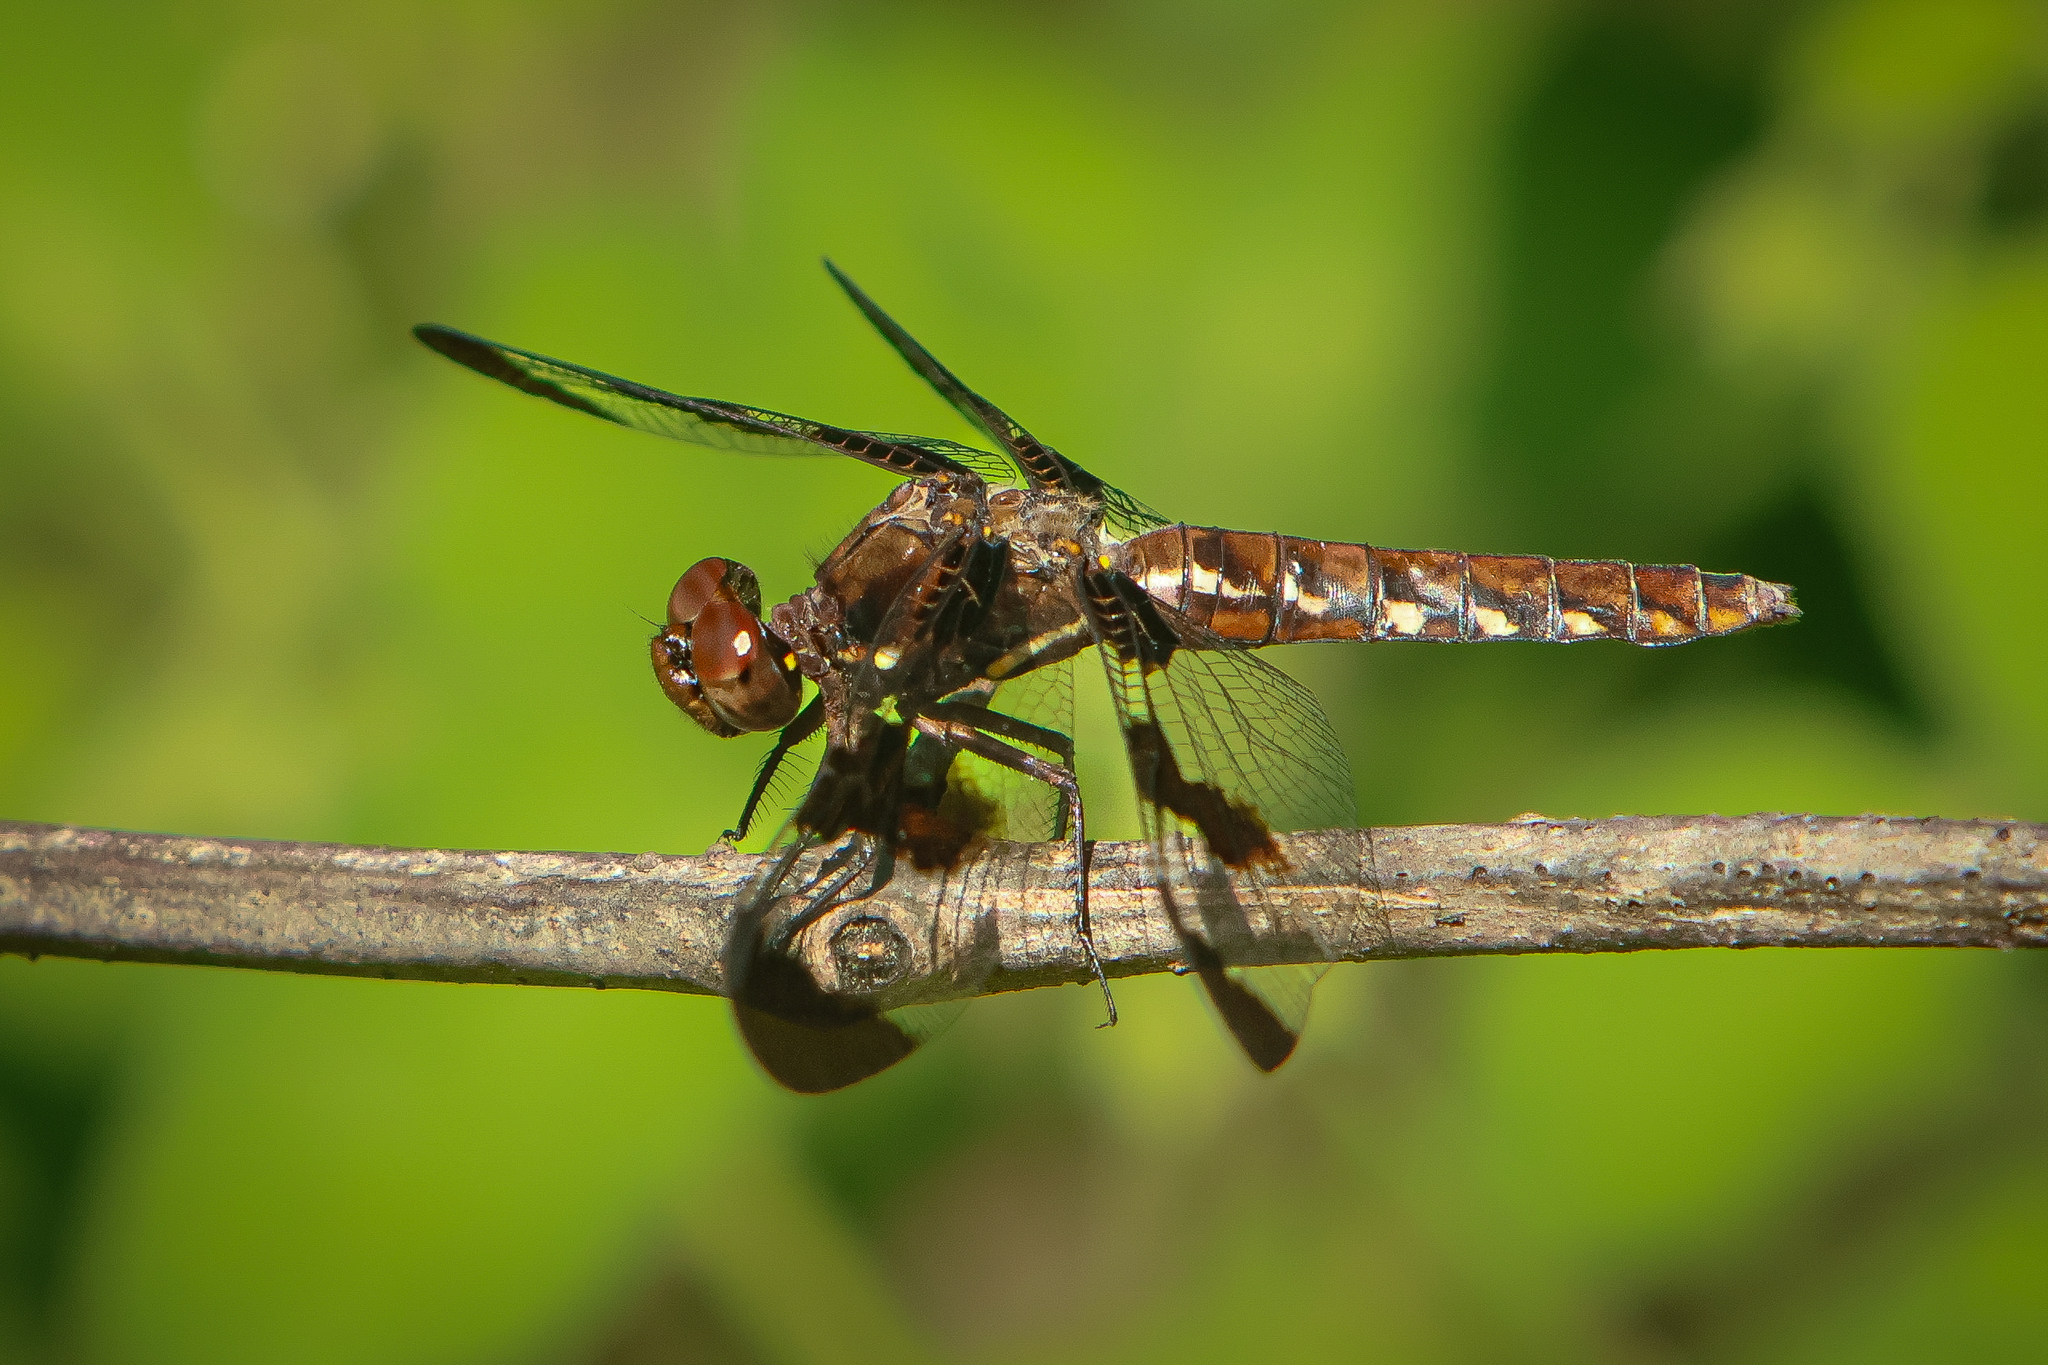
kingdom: Animalia
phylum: Arthropoda
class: Insecta
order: Odonata
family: Libellulidae
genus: Plathemis
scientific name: Plathemis lydia
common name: Common whitetail
